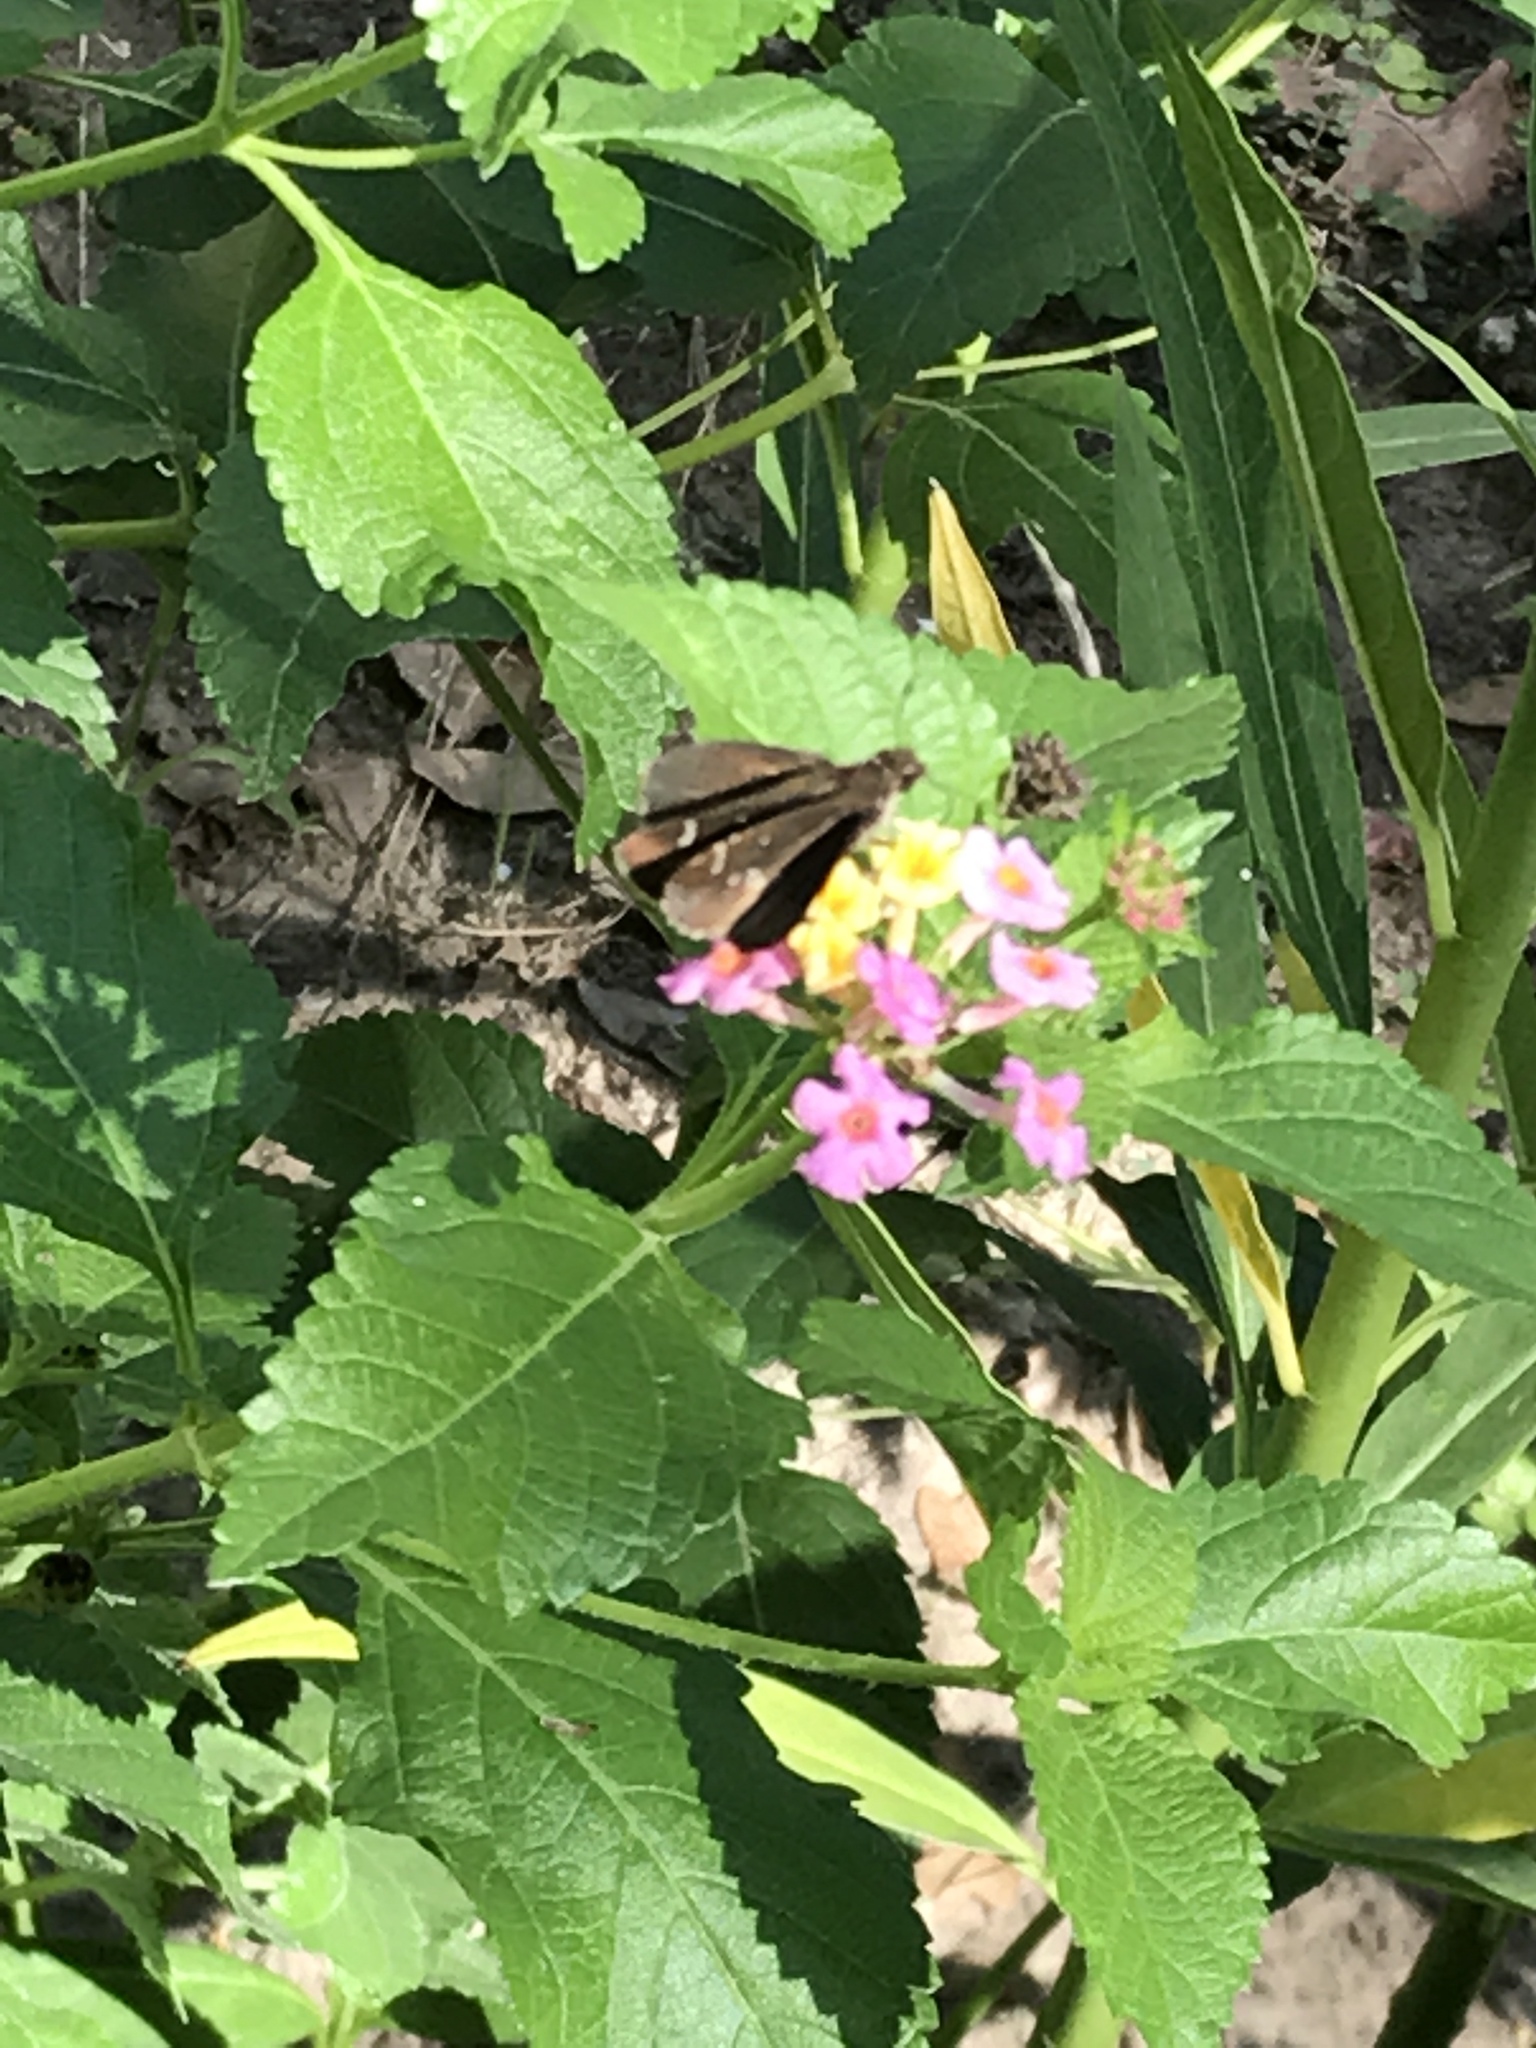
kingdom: Animalia
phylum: Arthropoda
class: Insecta
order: Lepidoptera
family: Hesperiidae
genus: Lerema
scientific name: Lerema accius
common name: Clouded skipper
